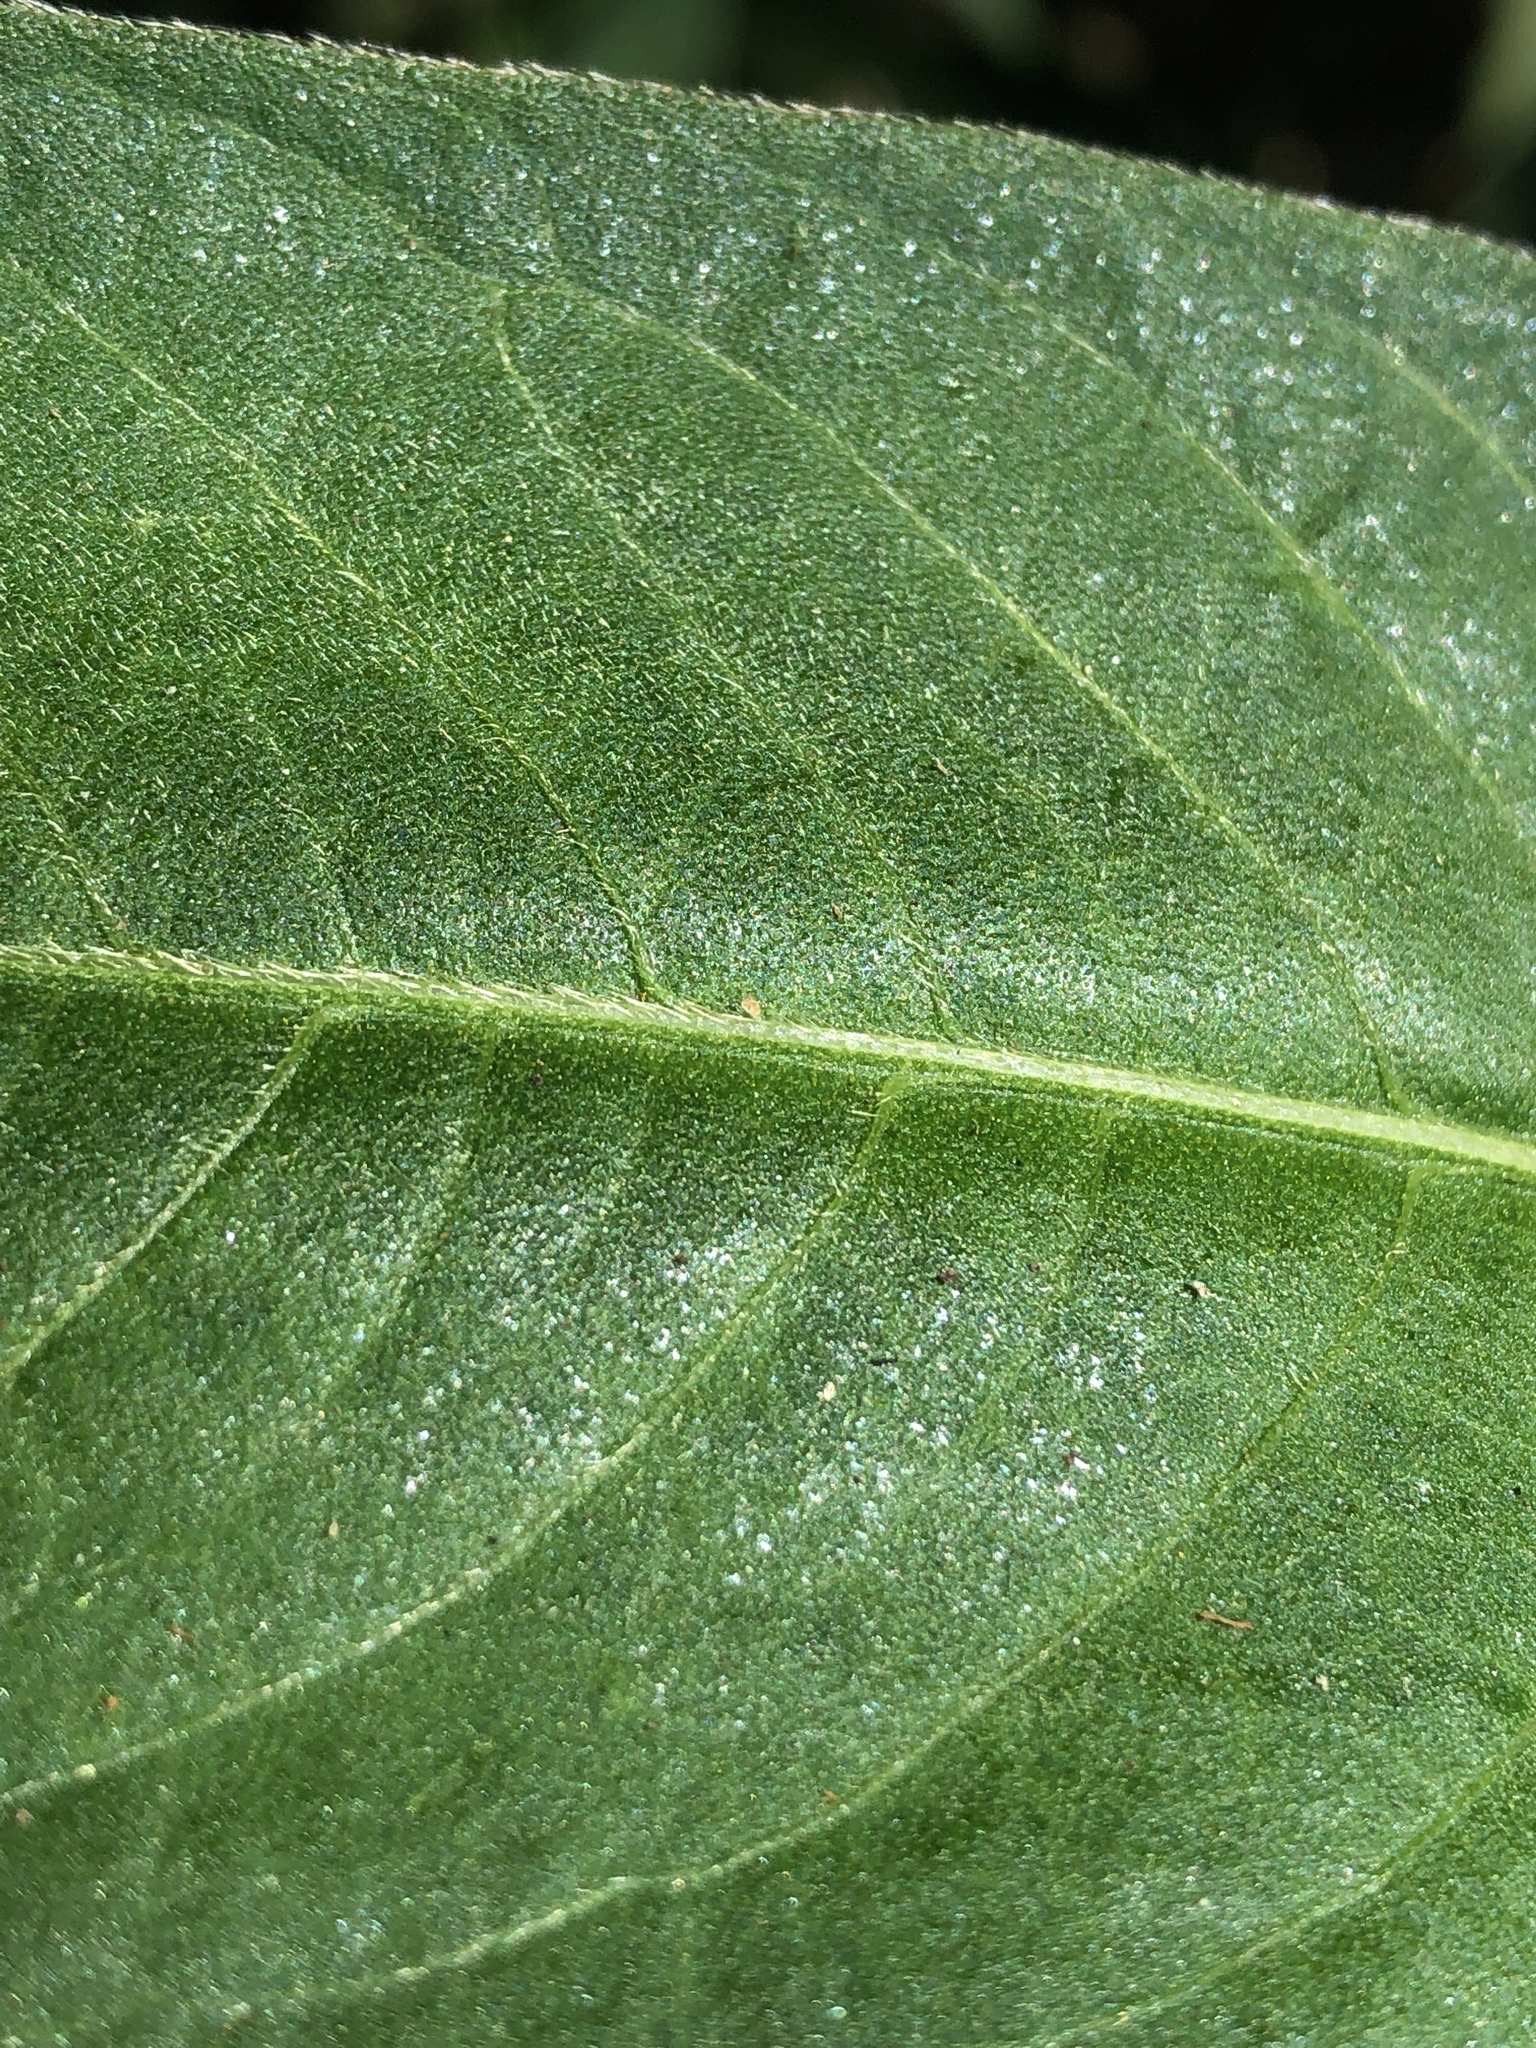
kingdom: Plantae
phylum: Tracheophyta
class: Magnoliopsida
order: Caryophyllales
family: Polygonaceae
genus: Persicaria
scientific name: Persicaria attenuata
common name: Hairy knotweed
